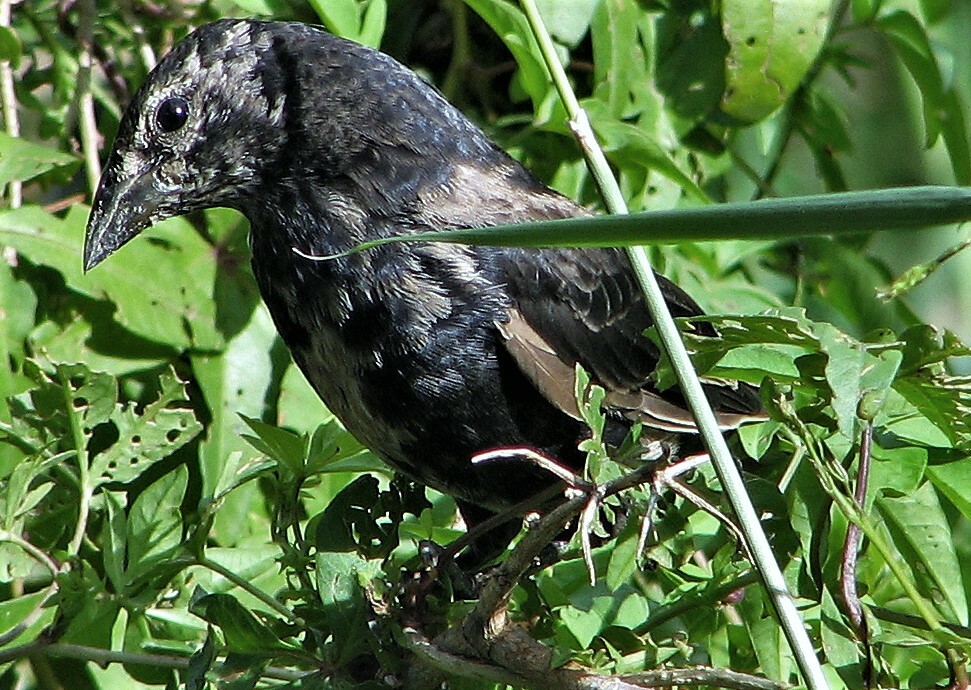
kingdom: Animalia
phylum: Chordata
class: Aves
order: Passeriformes
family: Icteridae
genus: Molothrus
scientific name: Molothrus bonariensis
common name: Shiny cowbird
